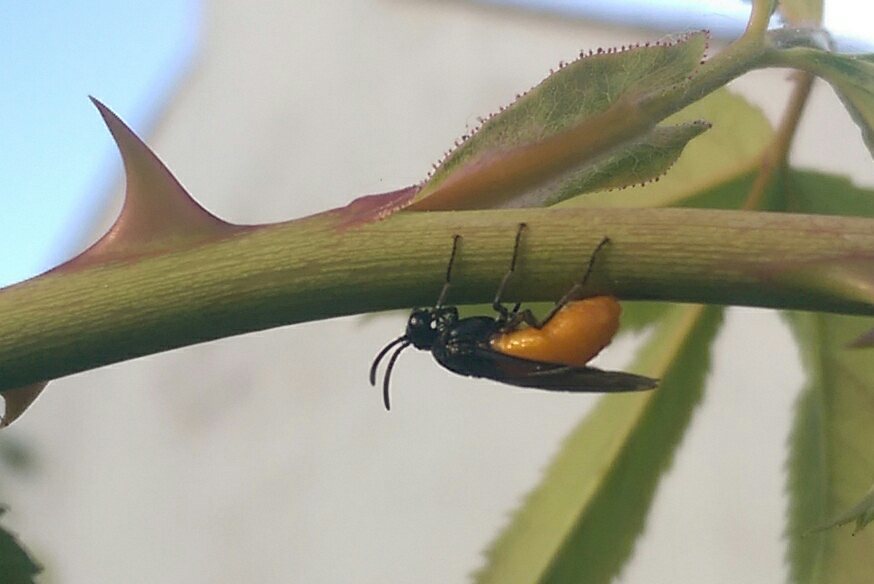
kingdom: Animalia
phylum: Arthropoda
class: Insecta
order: Hymenoptera
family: Argidae
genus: Arge
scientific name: Arge pagana
